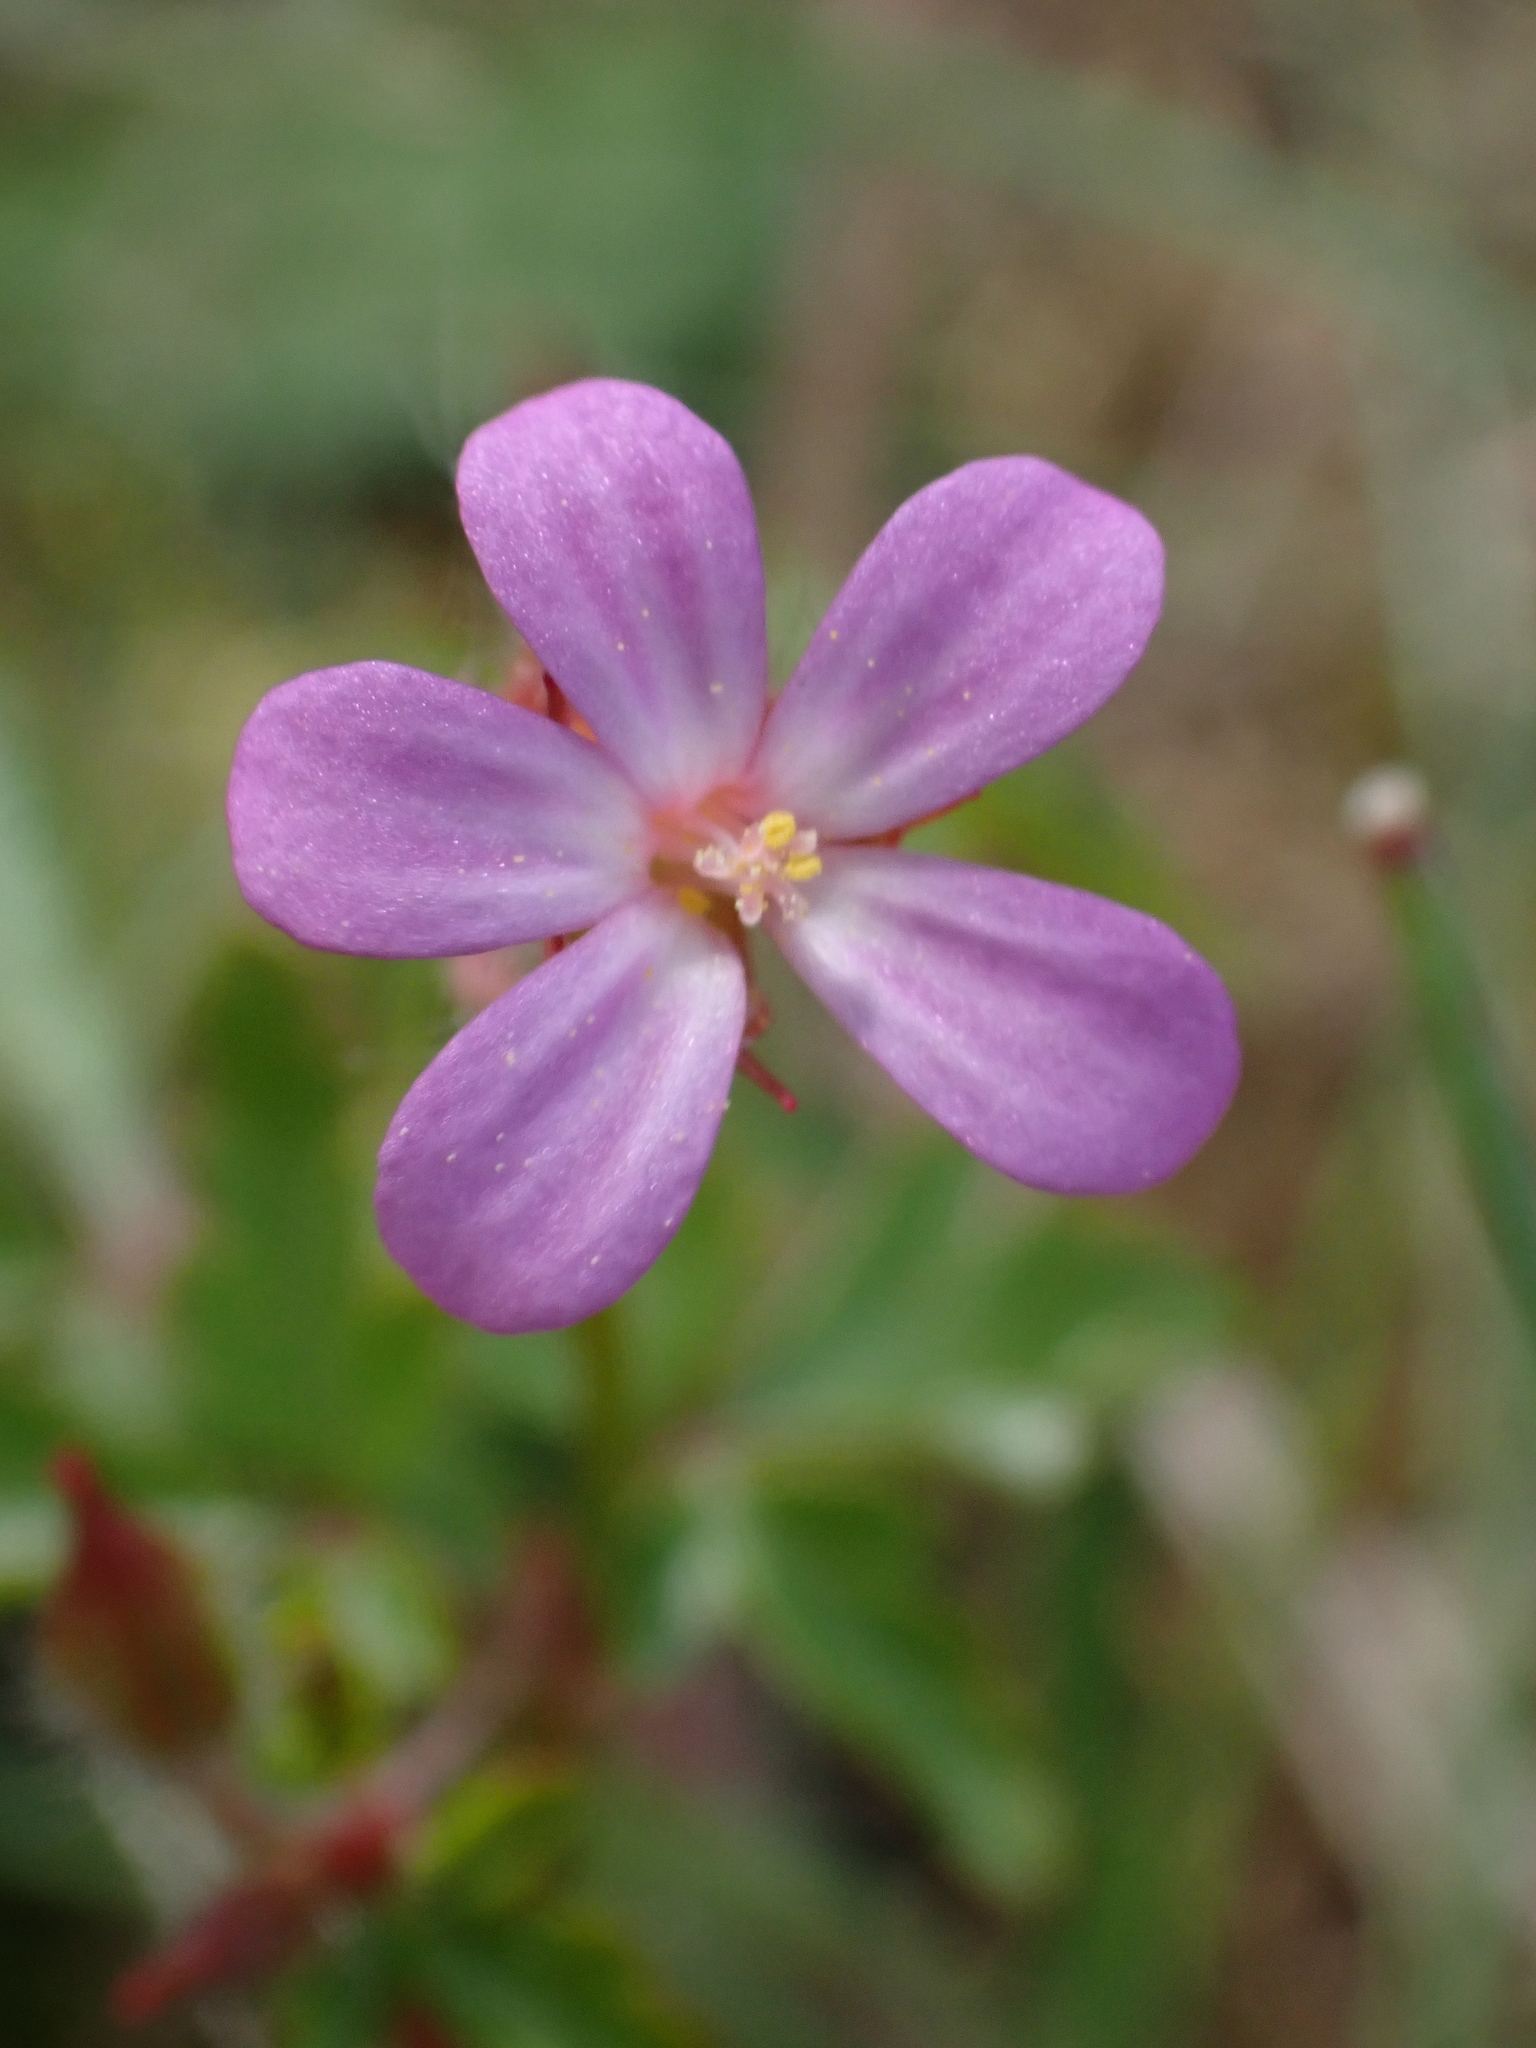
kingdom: Plantae
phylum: Tracheophyta
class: Magnoliopsida
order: Geraniales
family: Geraniaceae
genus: Geranium
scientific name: Geranium purpureum
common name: Little-robin
